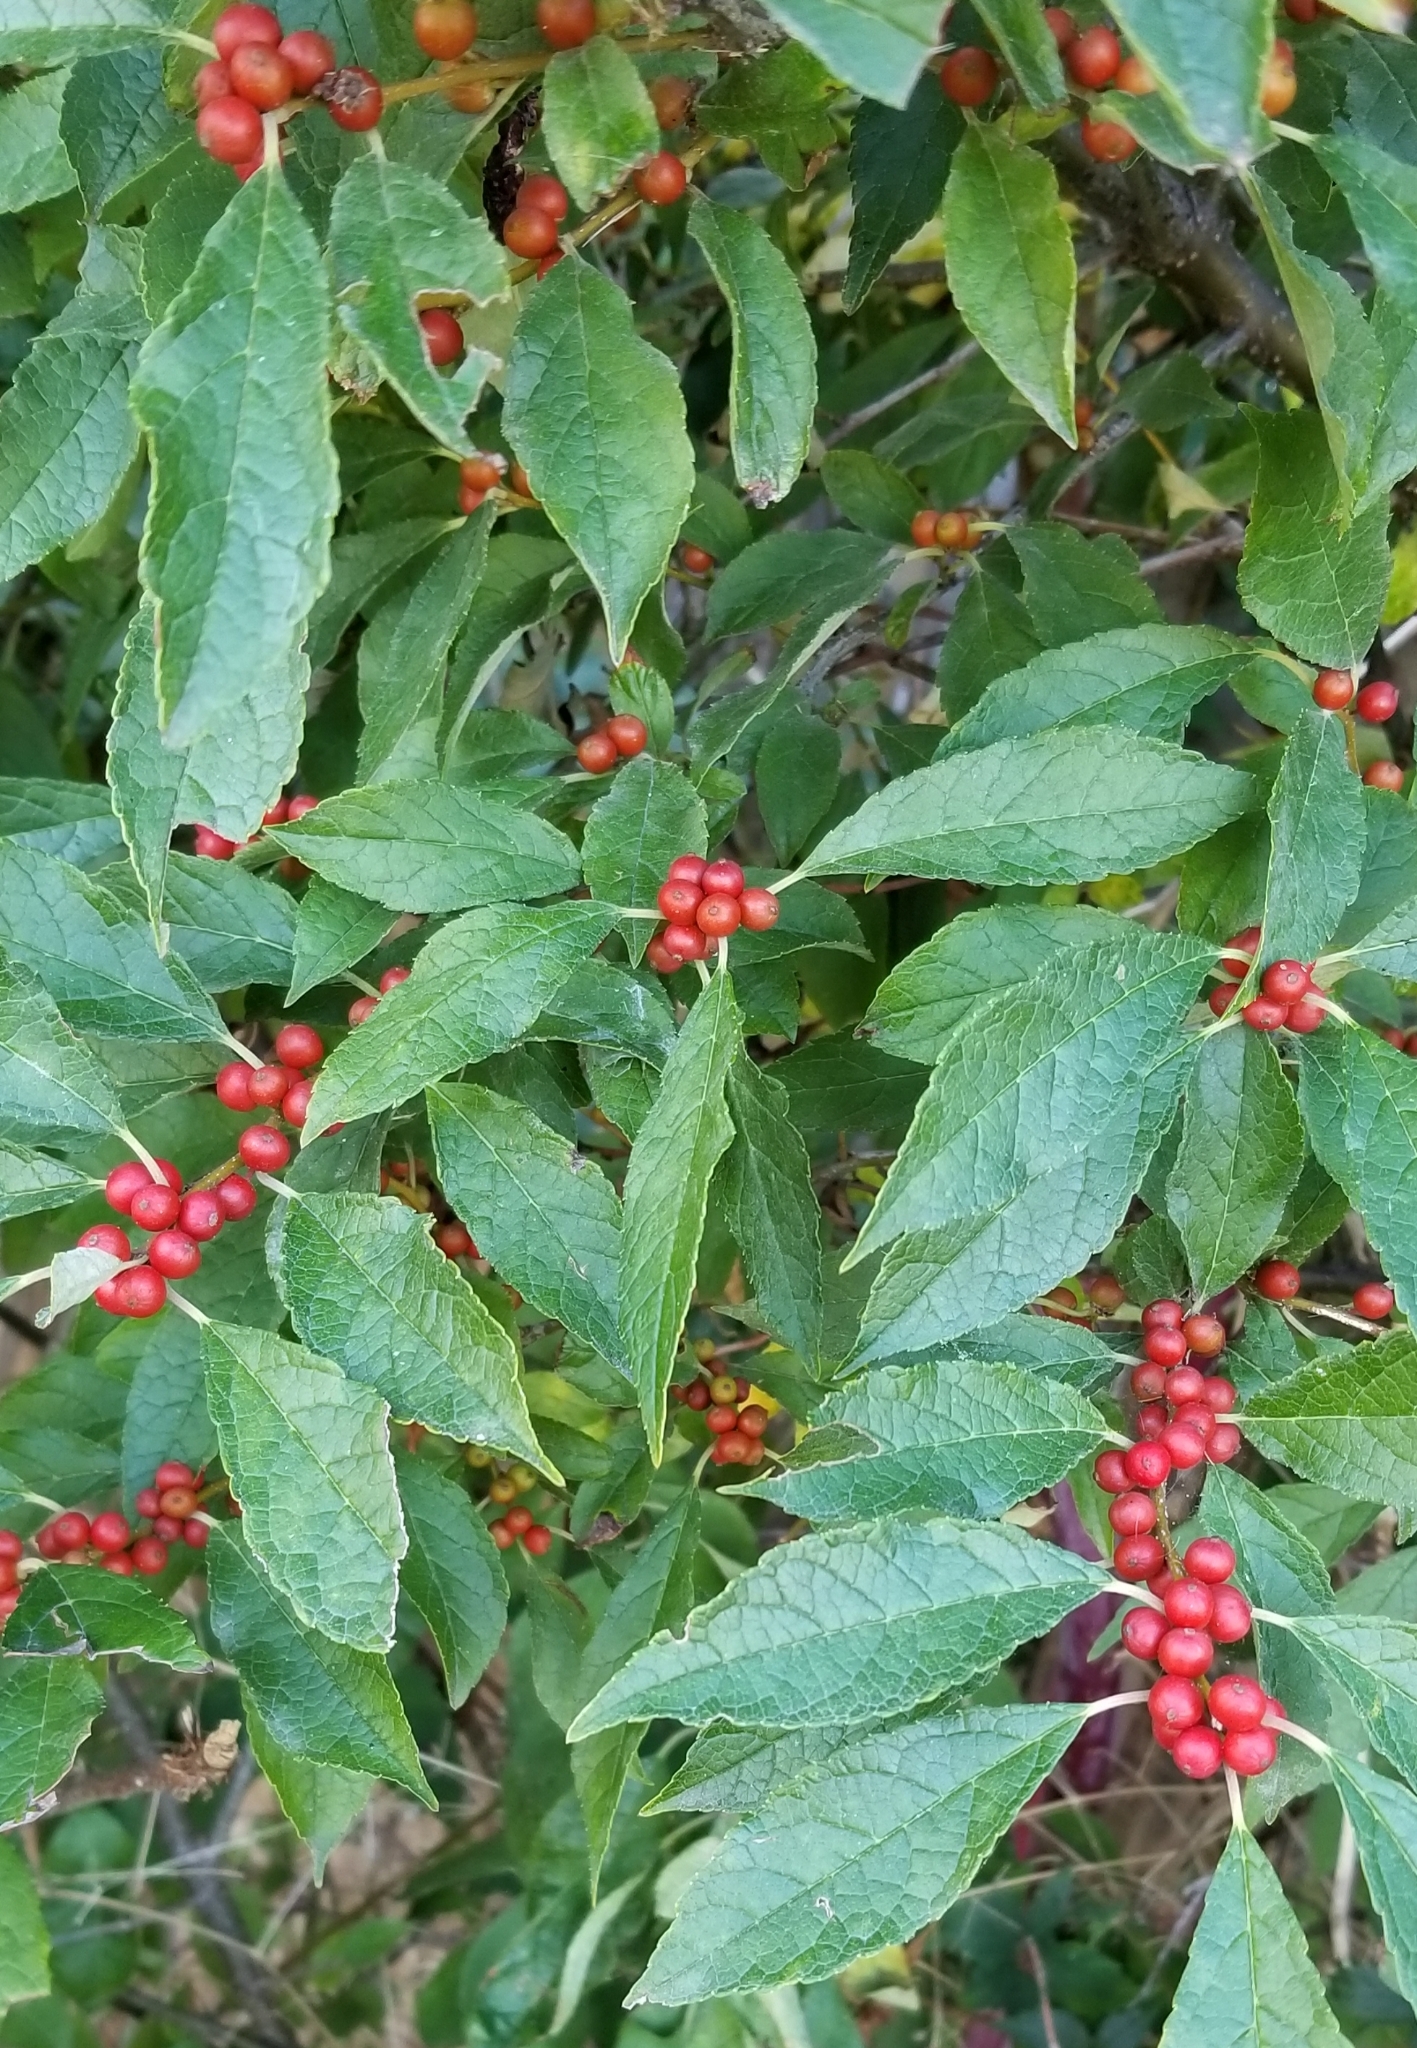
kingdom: Plantae
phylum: Tracheophyta
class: Magnoliopsida
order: Aquifoliales
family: Aquifoliaceae
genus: Ilex
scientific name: Ilex verticillata
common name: Virginia winterberry
